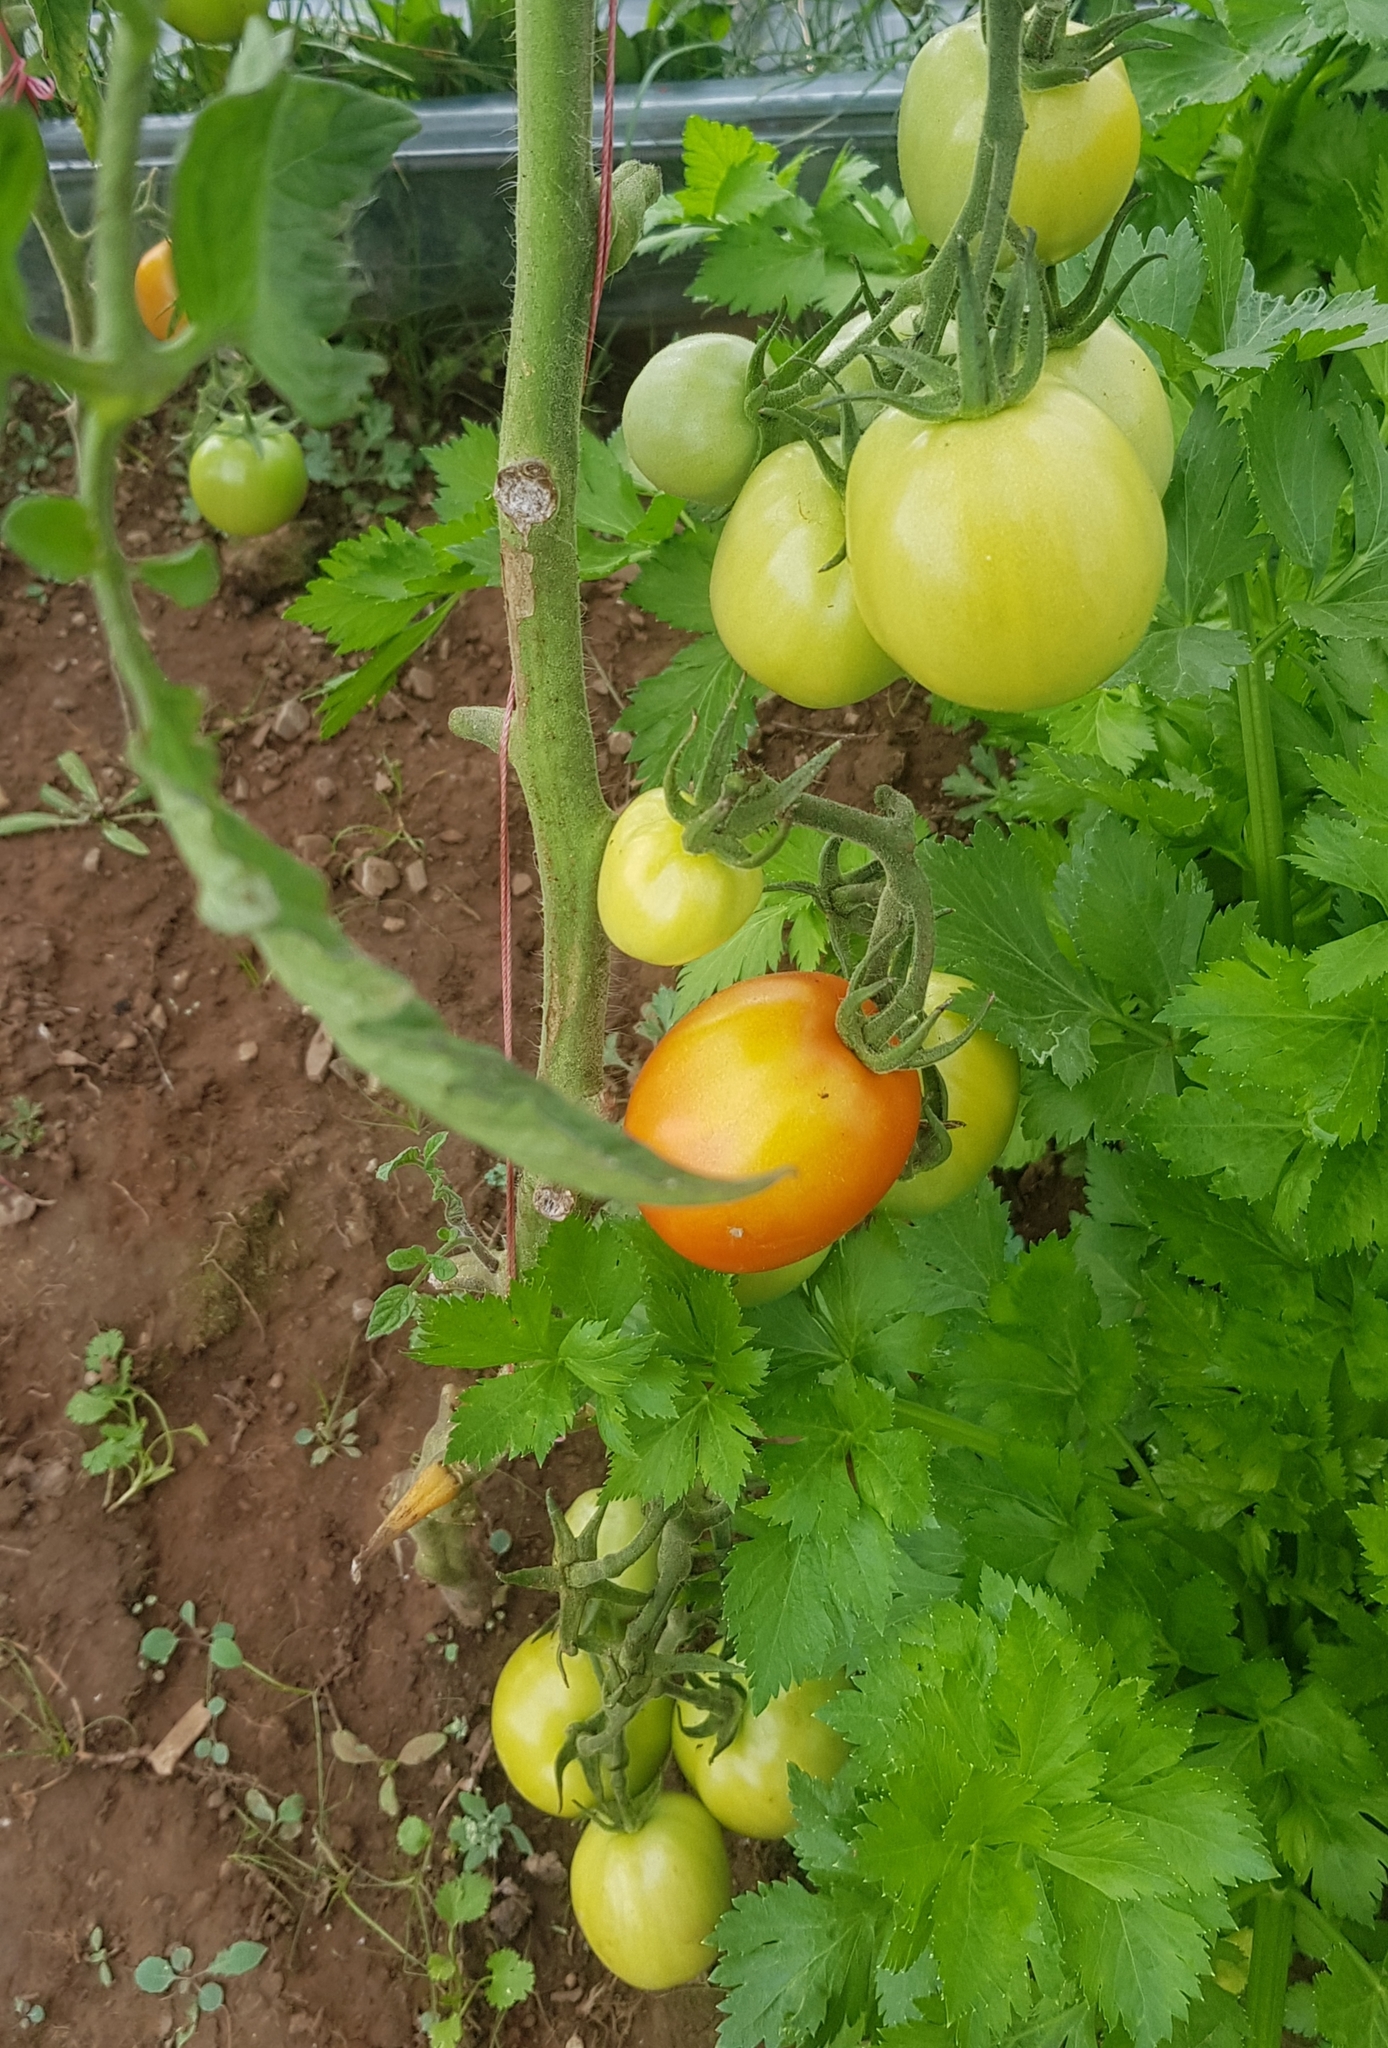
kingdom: Plantae
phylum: Tracheophyta
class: Magnoliopsida
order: Solanales
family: Solanaceae
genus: Solanum
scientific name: Solanum lycopersicum
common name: Garden tomato
